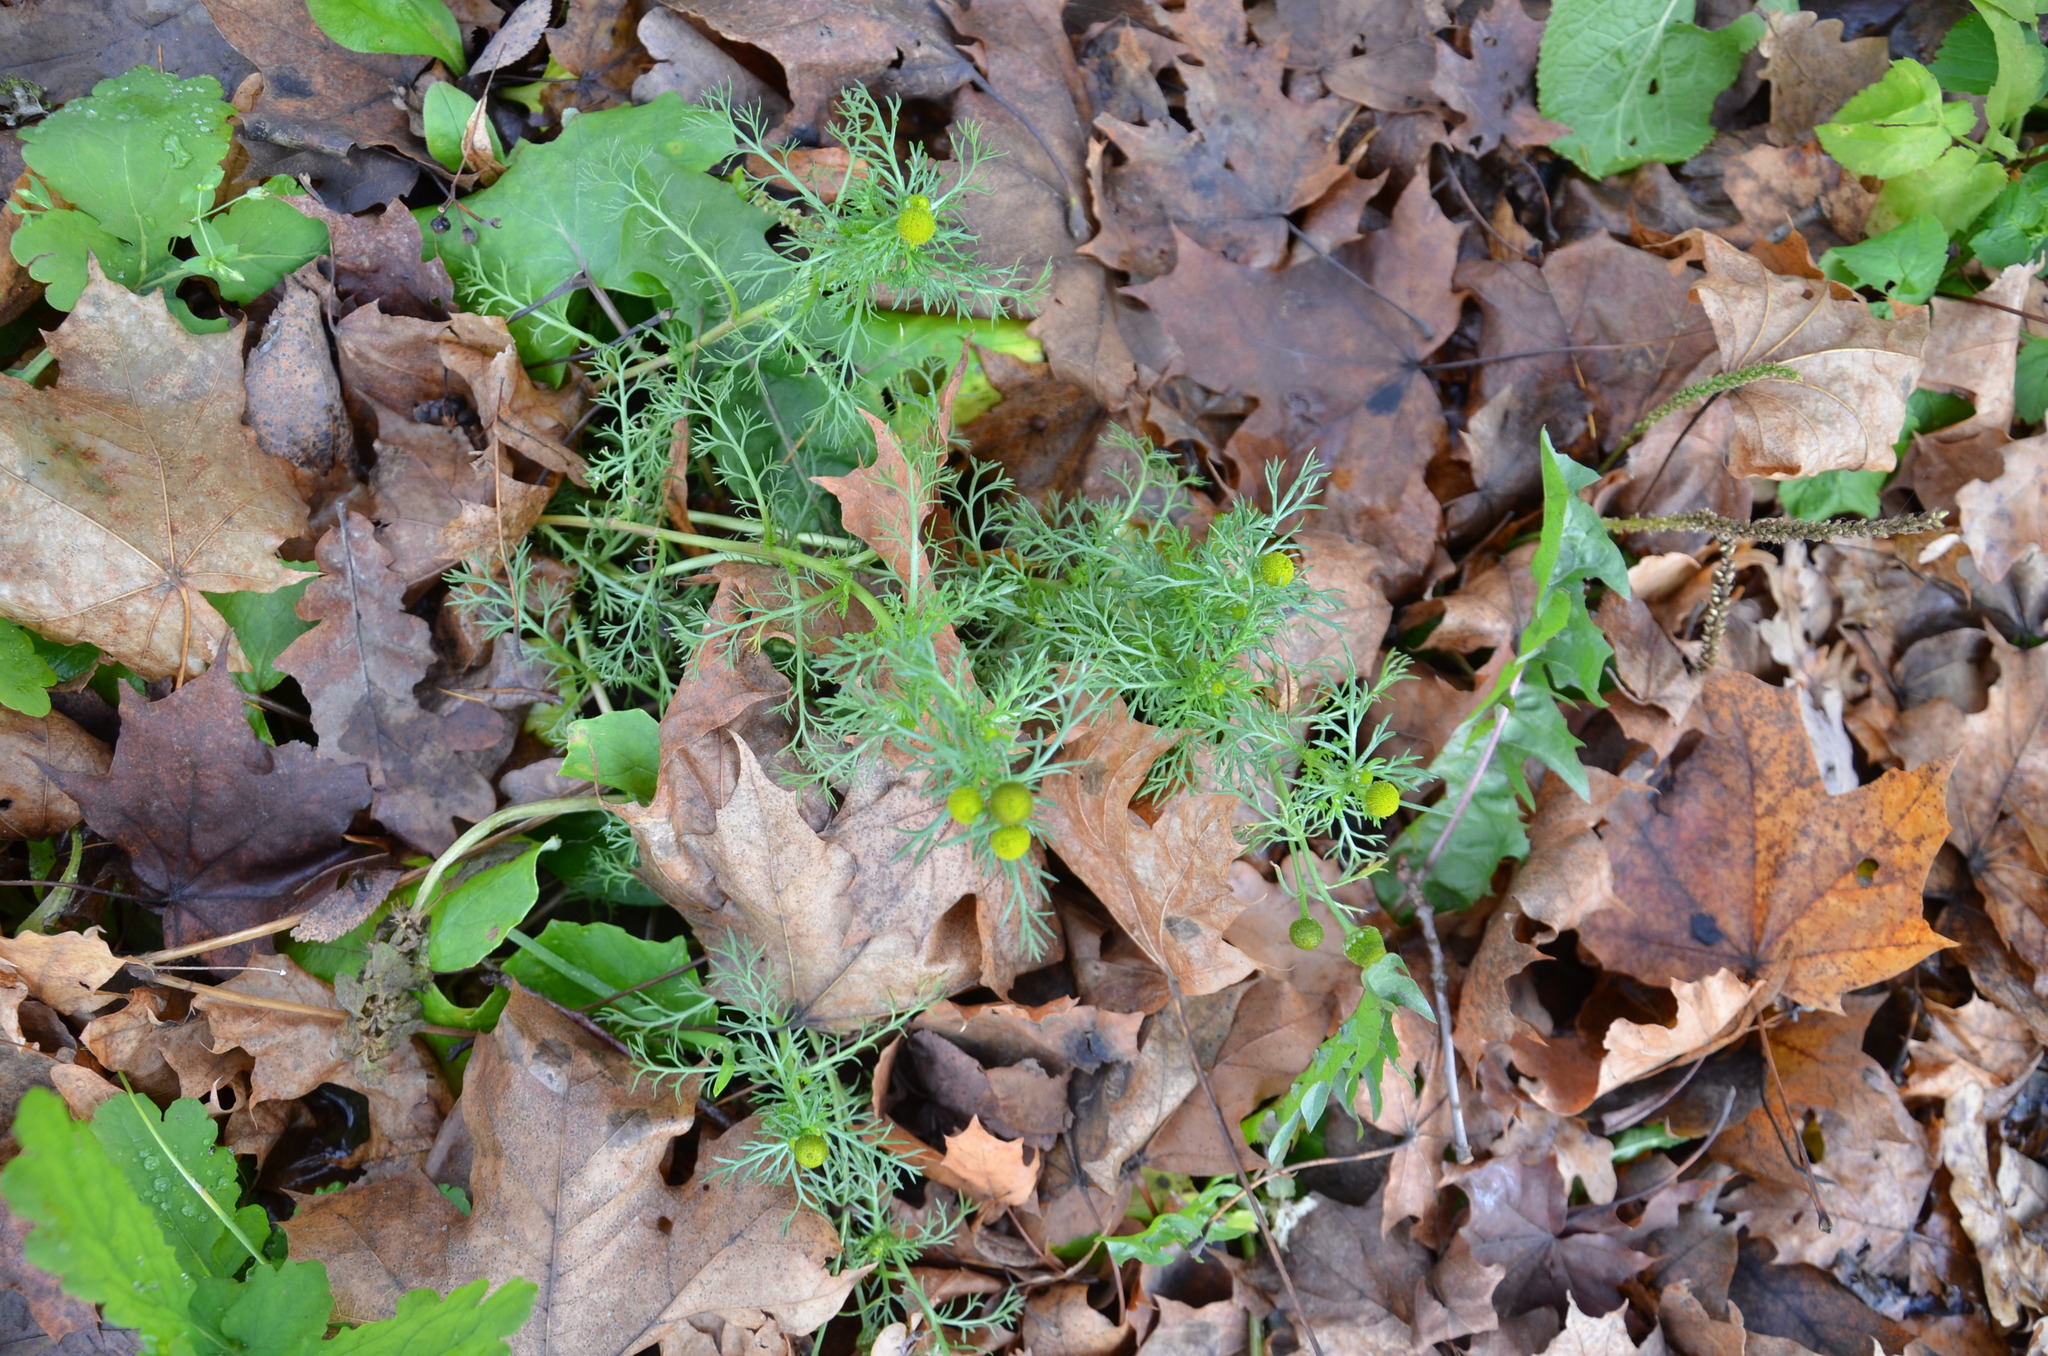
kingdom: Plantae
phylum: Tracheophyta
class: Magnoliopsida
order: Asterales
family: Asteraceae
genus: Matricaria
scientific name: Matricaria discoidea
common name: Disc mayweed
